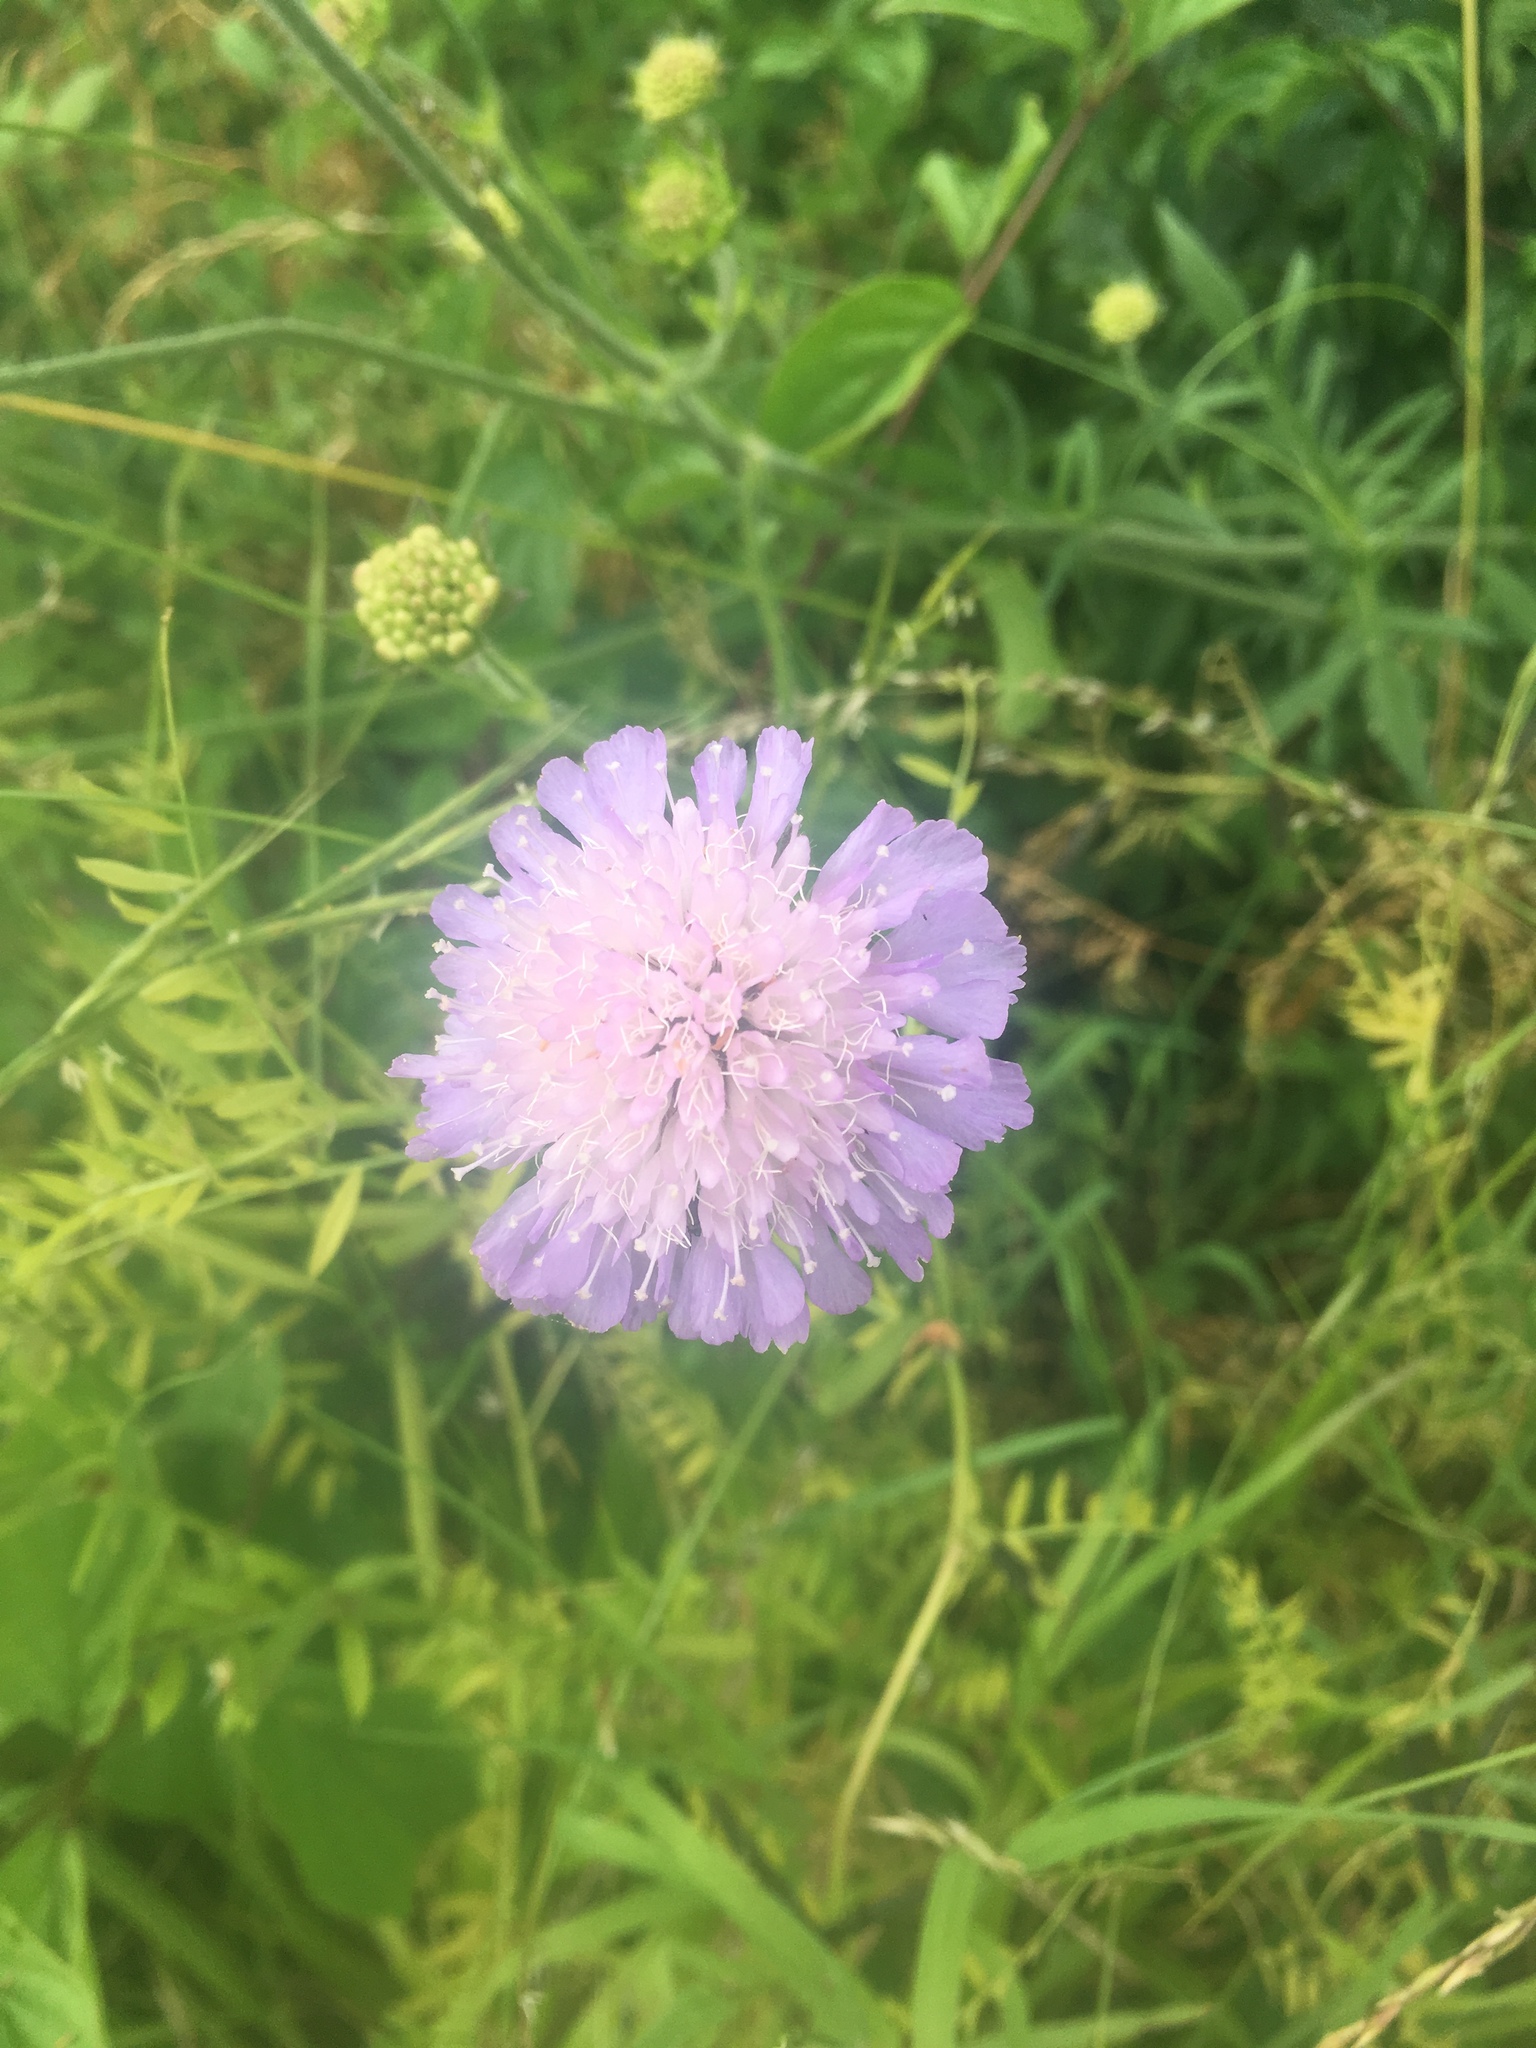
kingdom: Plantae
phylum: Tracheophyta
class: Magnoliopsida
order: Dipsacales
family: Caprifoliaceae
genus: Knautia
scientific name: Knautia arvensis
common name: Field scabiosa
